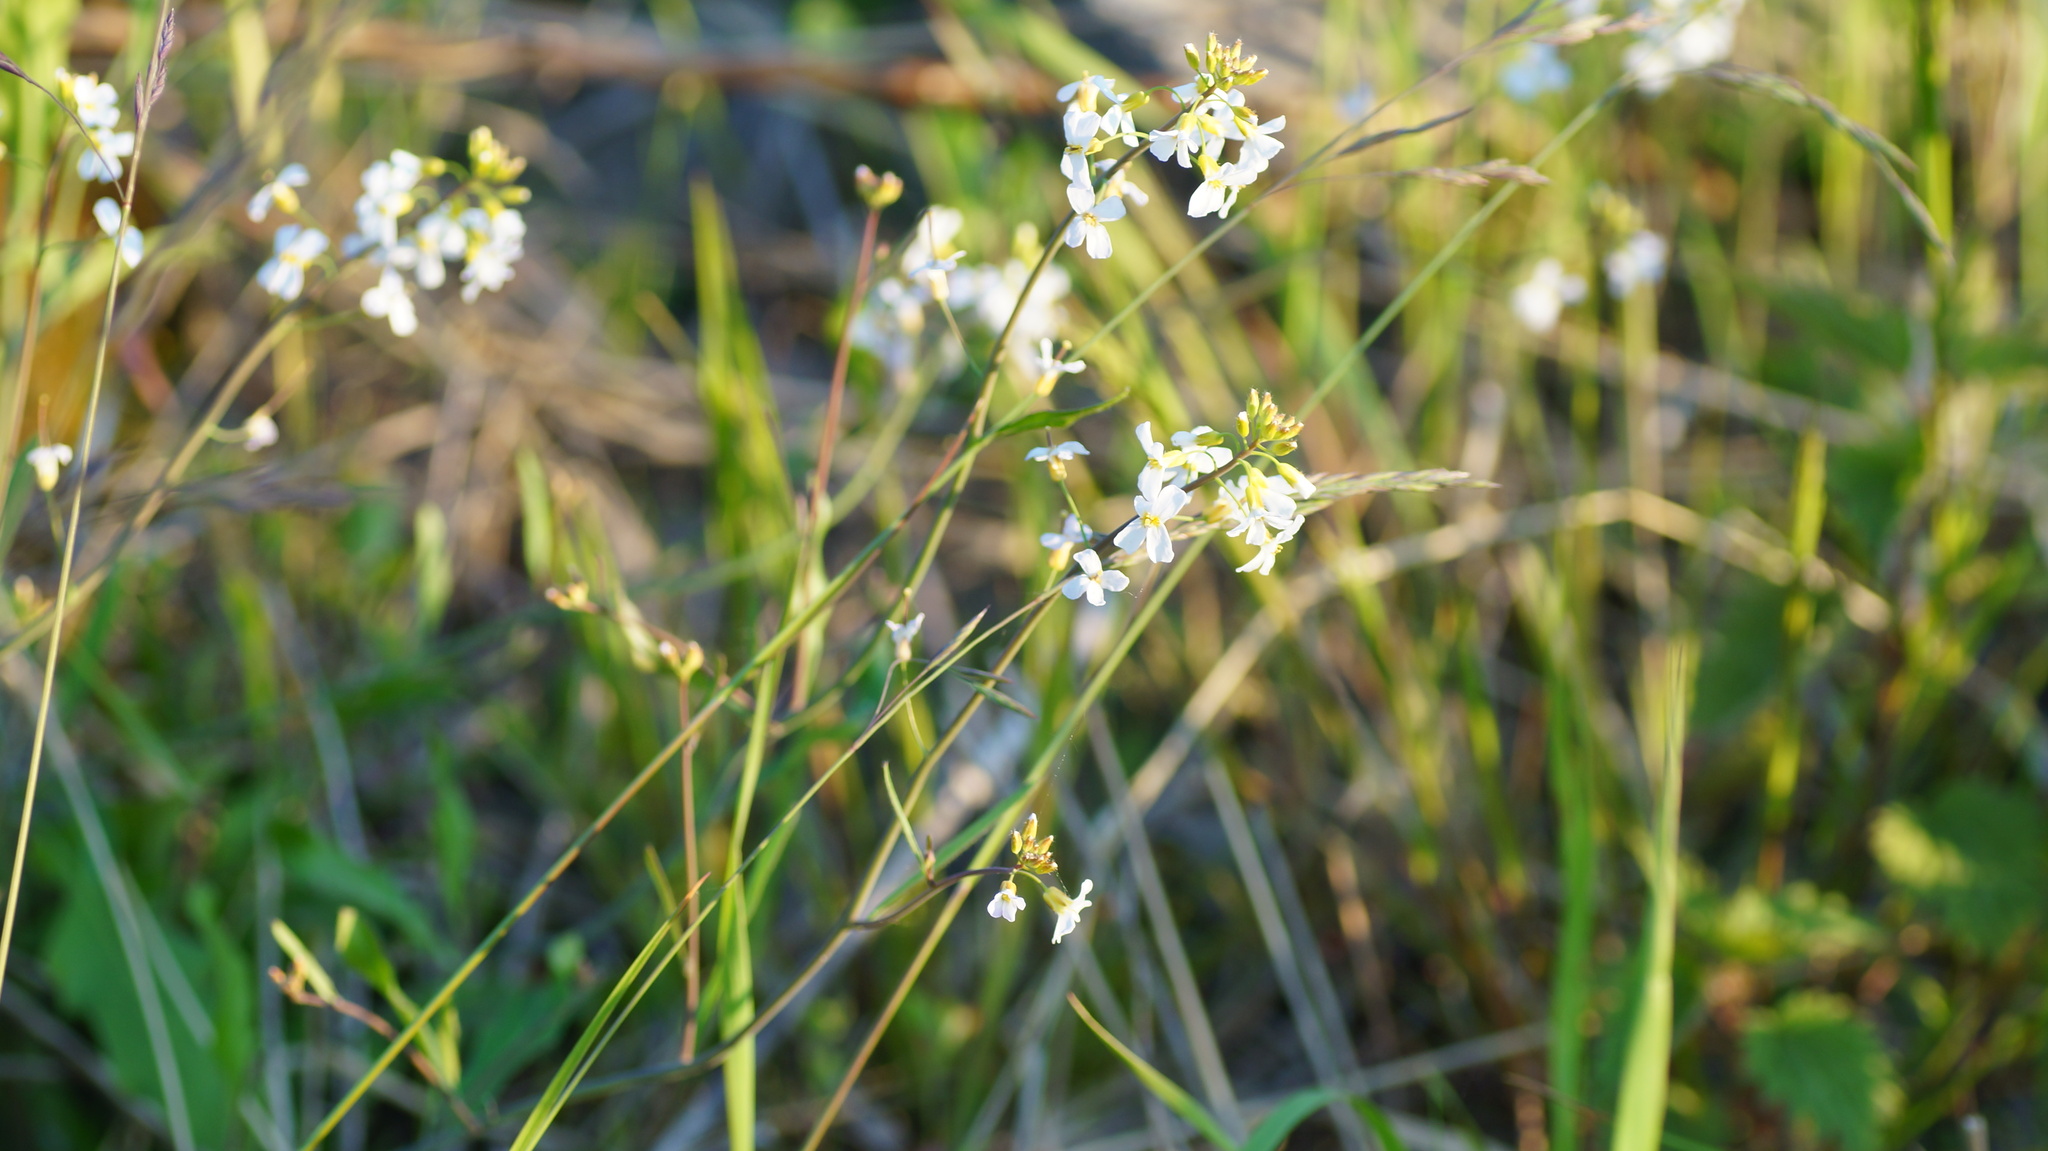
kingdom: Plantae
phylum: Tracheophyta
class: Magnoliopsida
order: Brassicales
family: Brassicaceae
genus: Arabidopsis
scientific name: Arabidopsis arenosa
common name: Sand rock-cress
